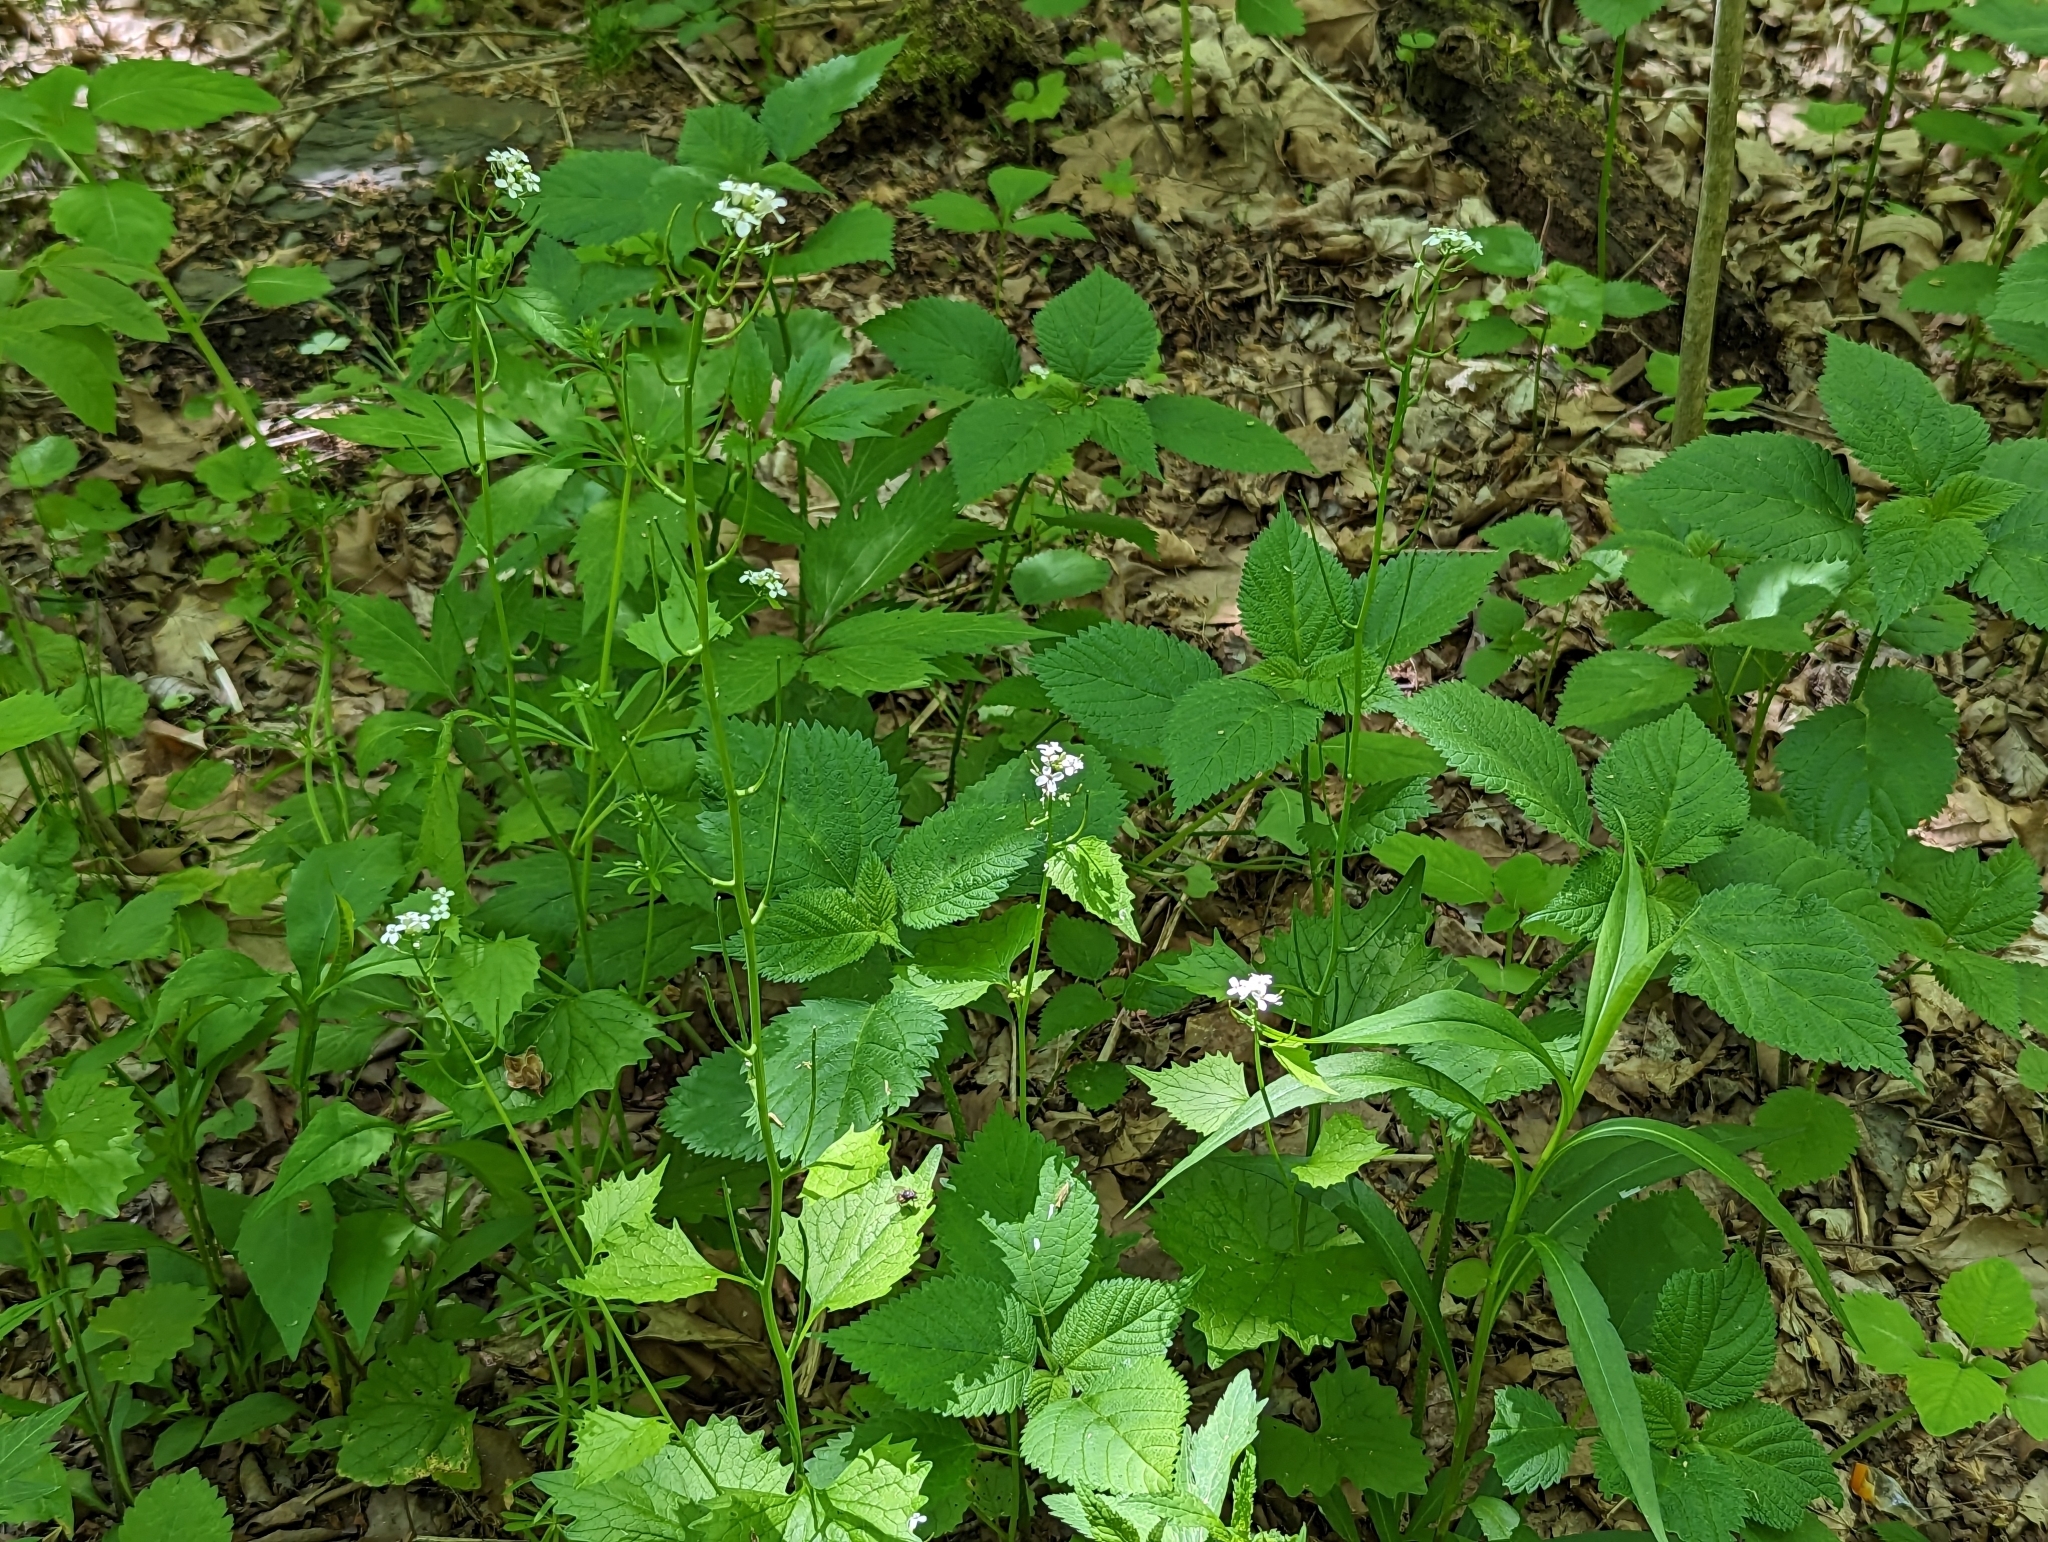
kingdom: Plantae
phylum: Tracheophyta
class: Magnoliopsida
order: Brassicales
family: Brassicaceae
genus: Alliaria
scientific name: Alliaria petiolata
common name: Garlic mustard
